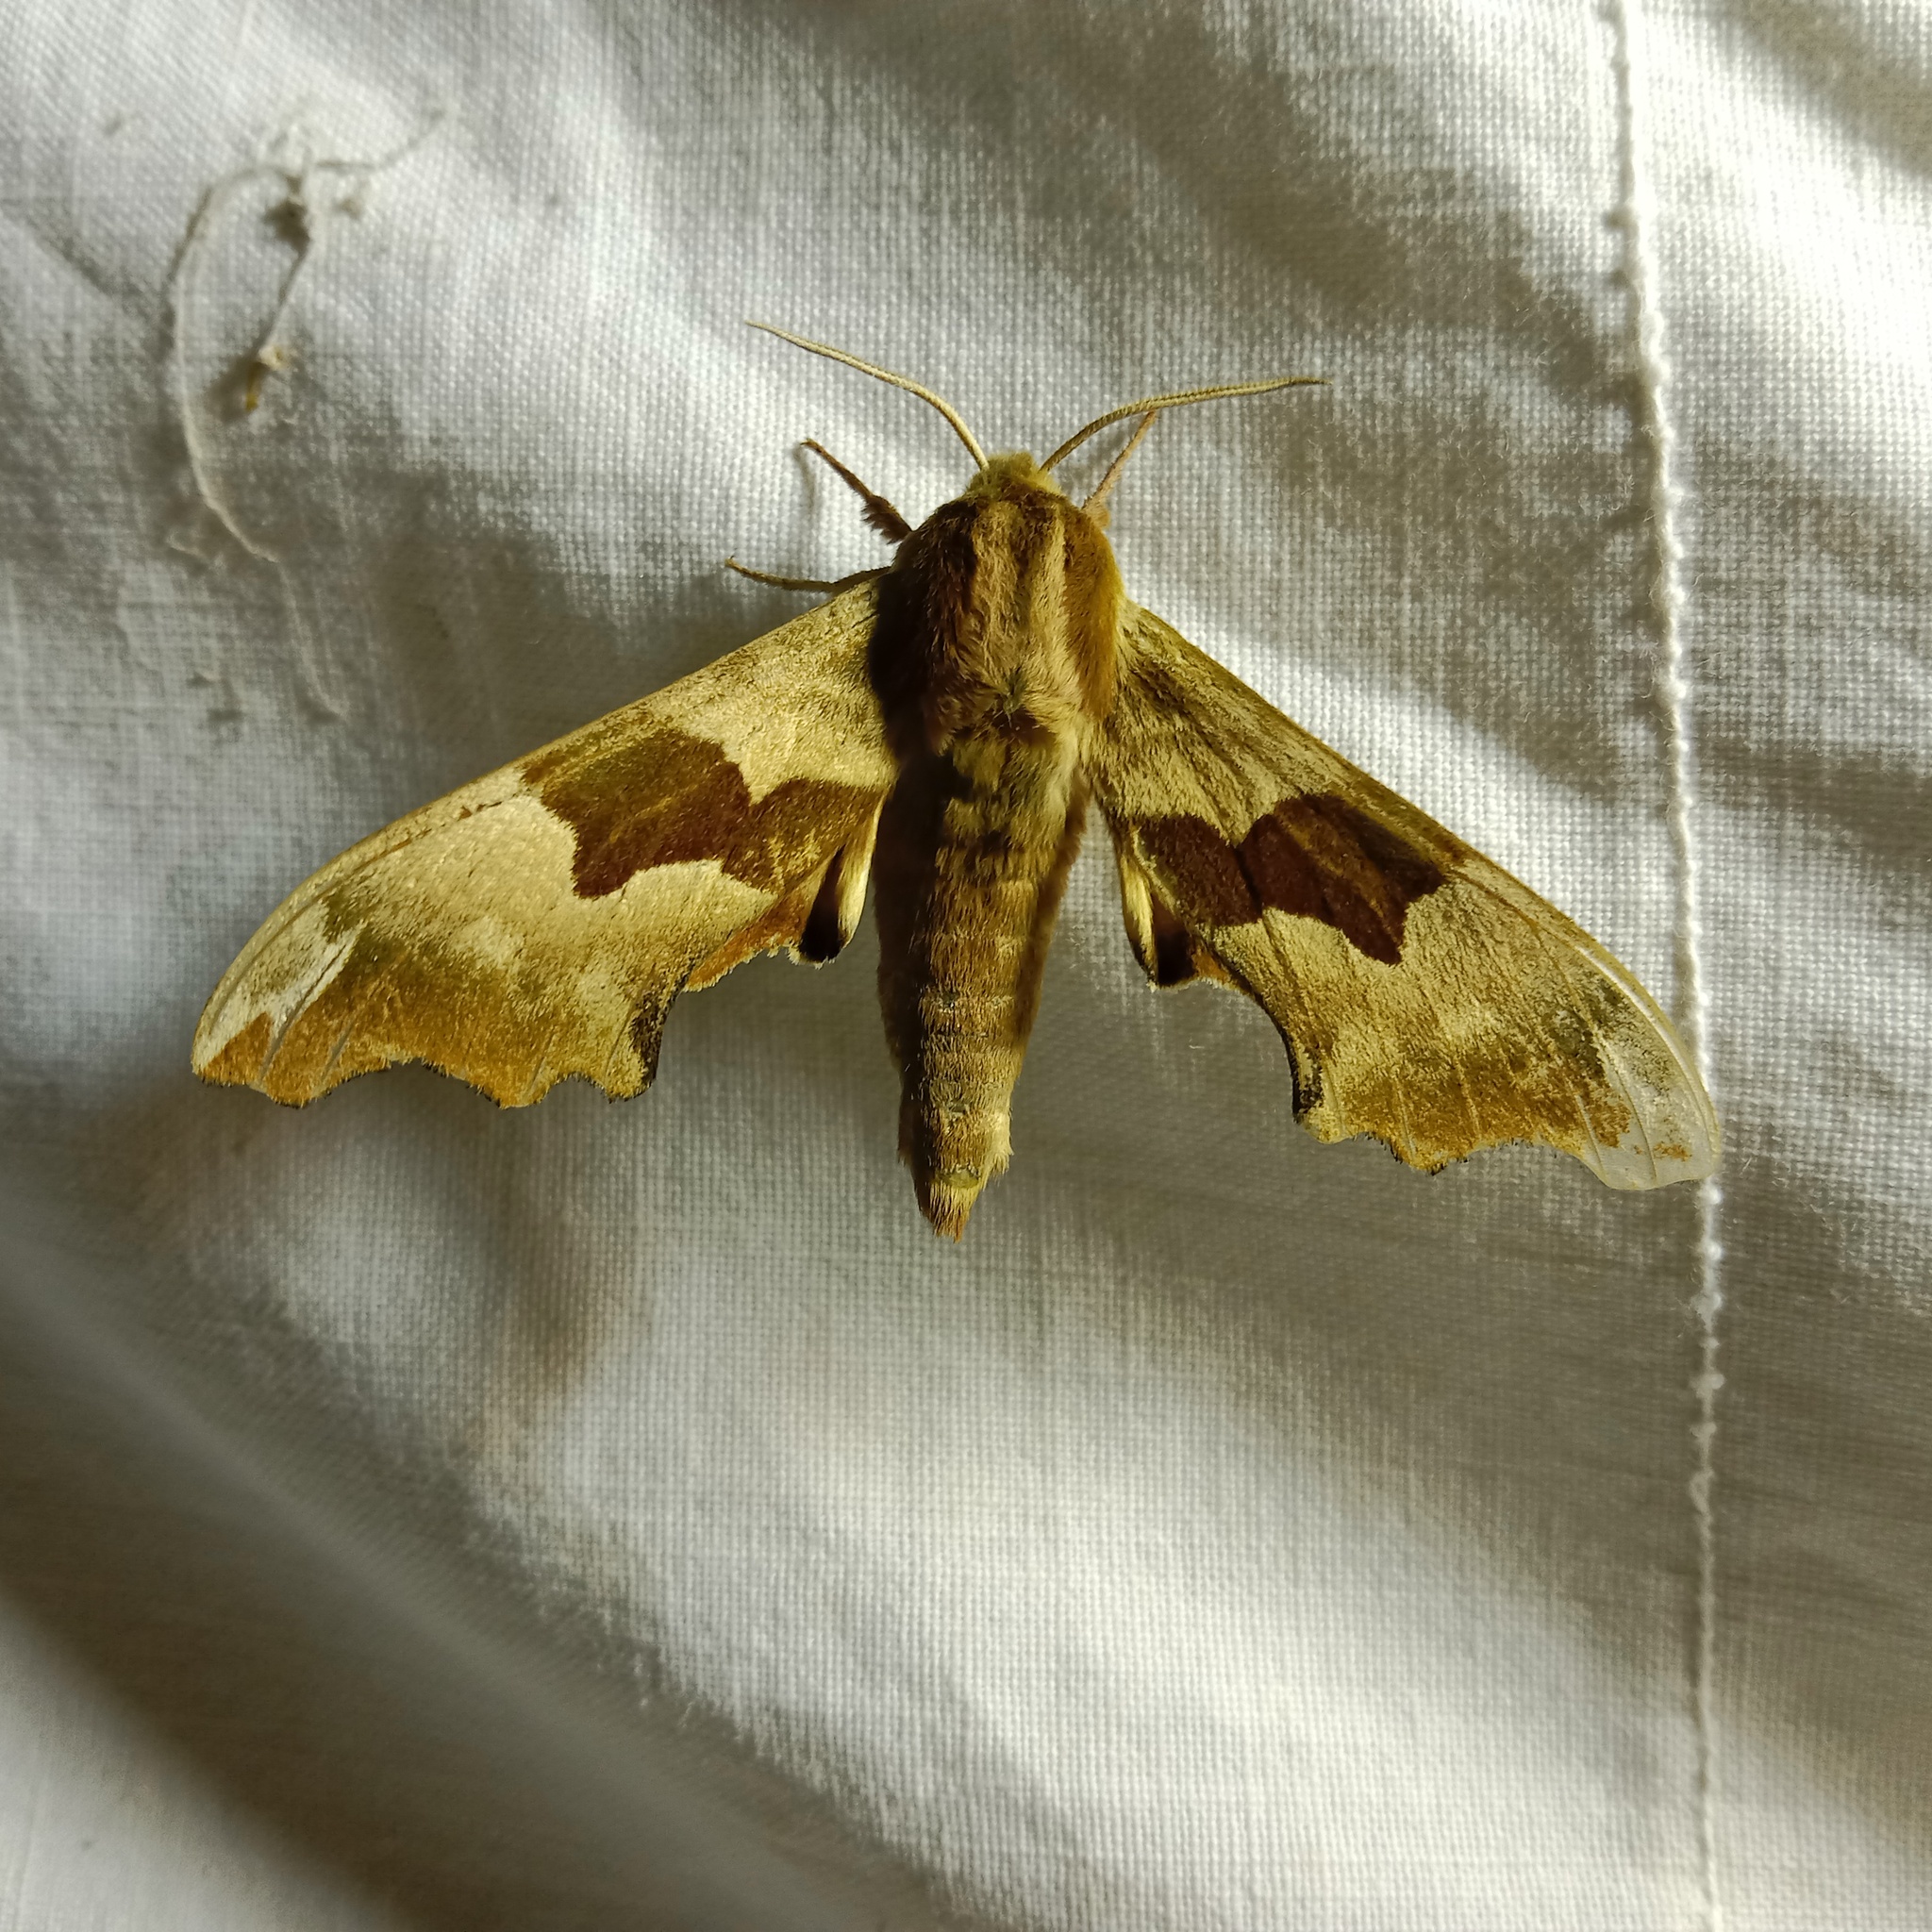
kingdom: Animalia
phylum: Arthropoda
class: Insecta
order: Lepidoptera
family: Sphingidae
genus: Mimas
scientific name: Mimas tiliae
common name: Lime hawk-moth
